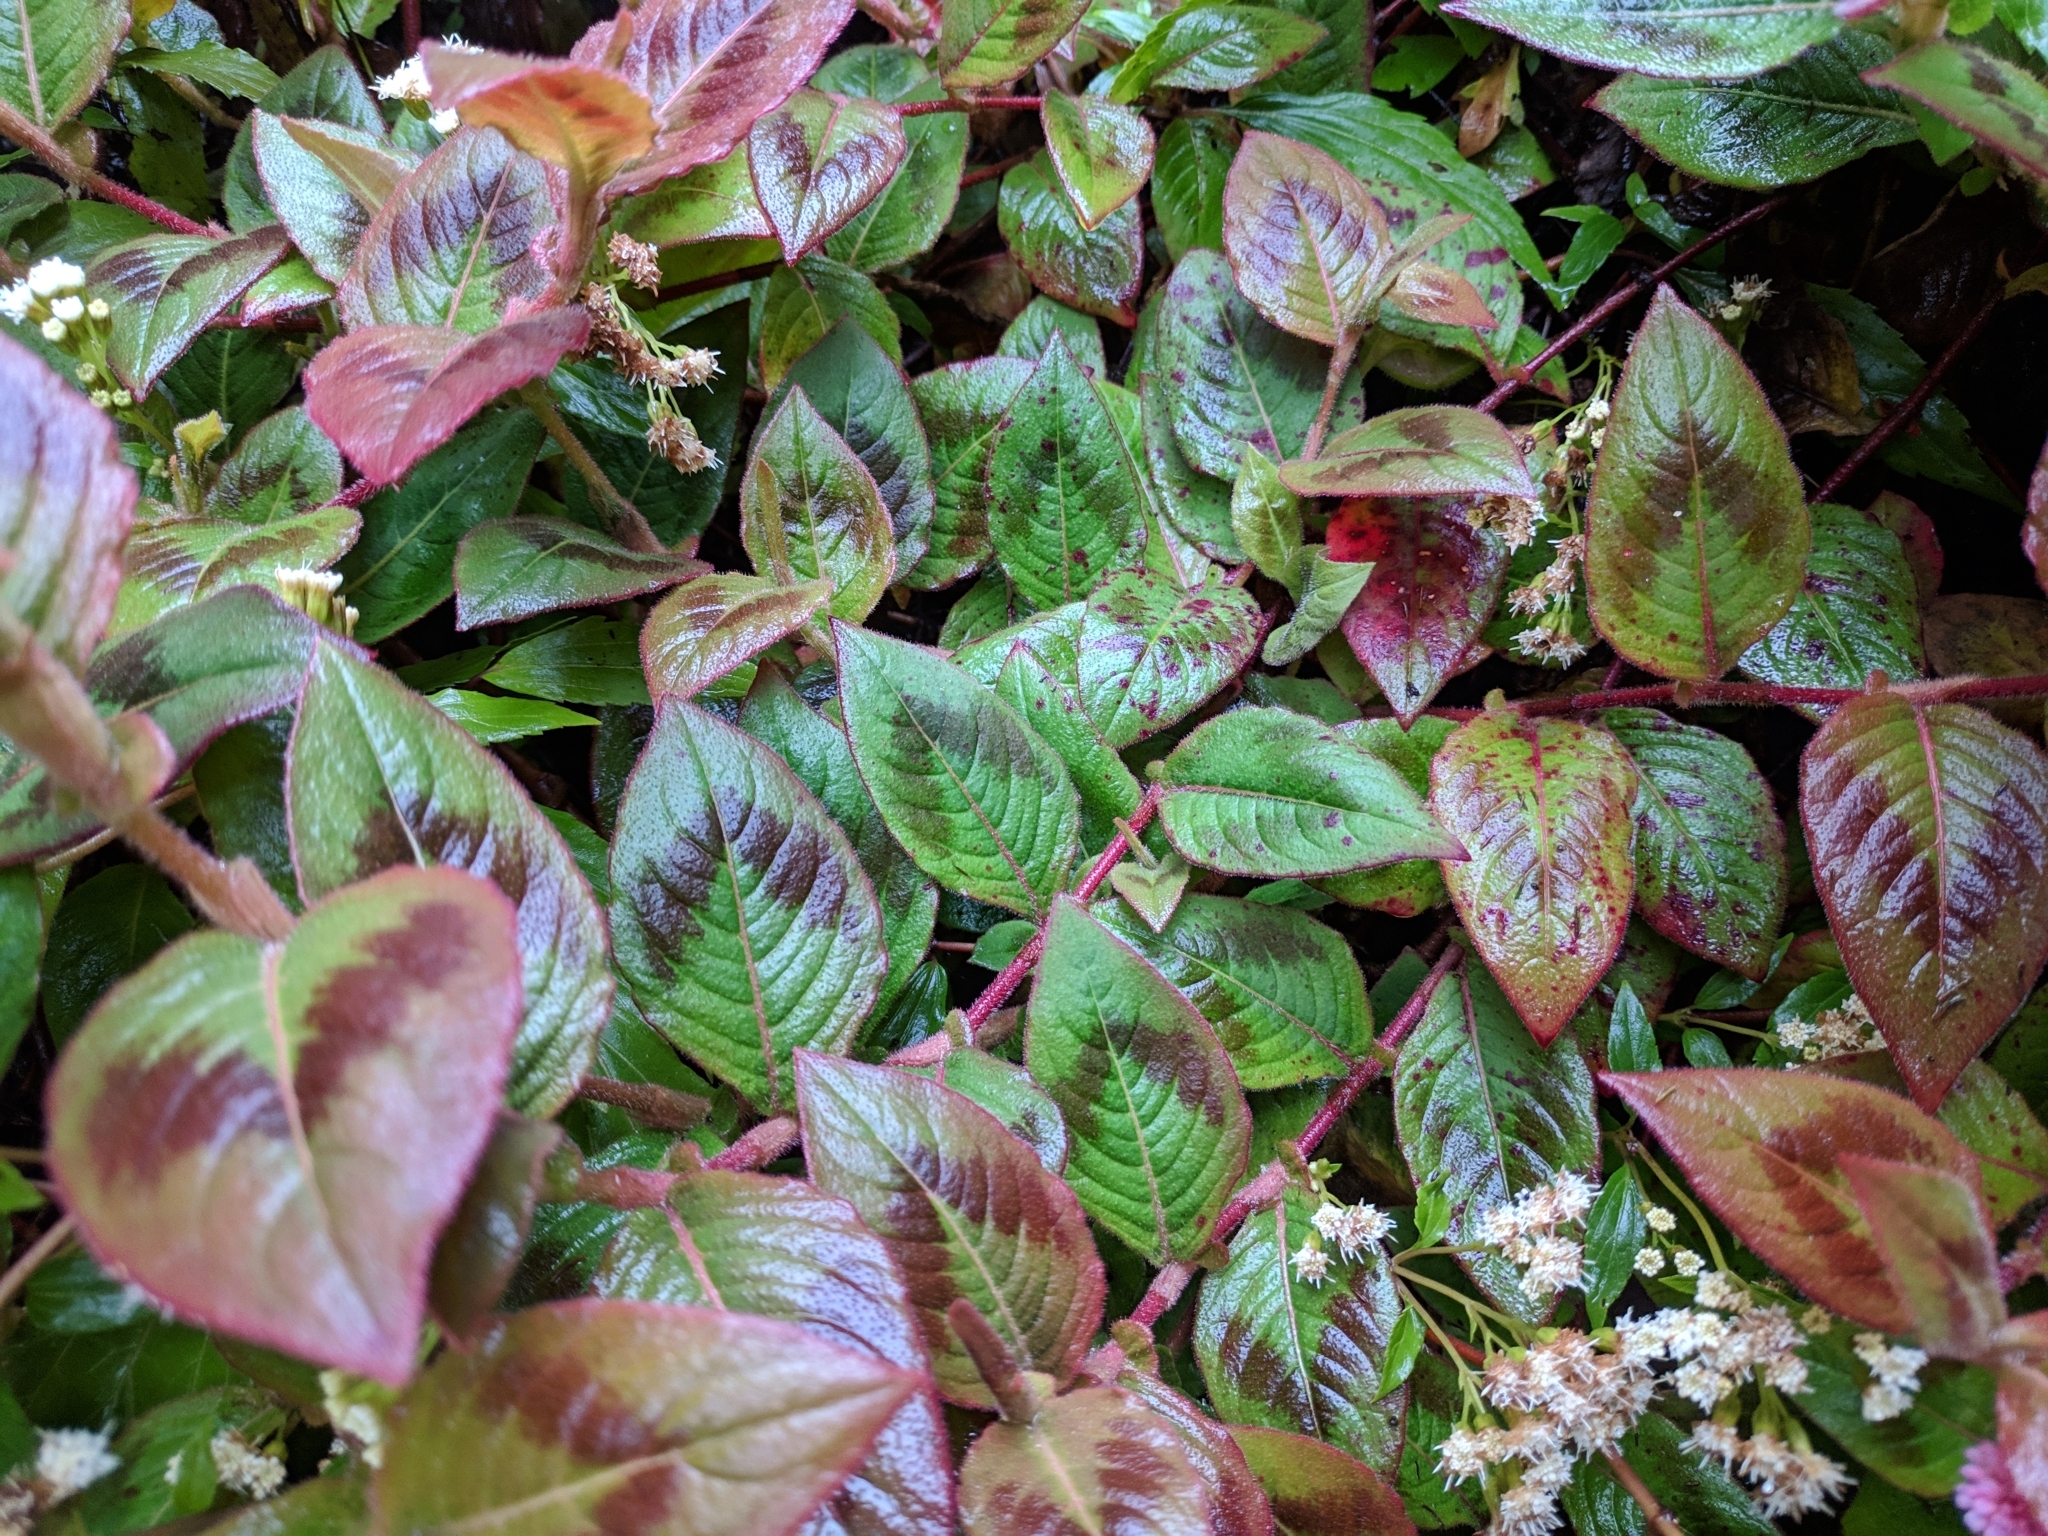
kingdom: Plantae
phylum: Tracheophyta
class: Magnoliopsida
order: Caryophyllales
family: Polygonaceae
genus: Persicaria
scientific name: Persicaria capitata
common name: Pinkhead smartweed
